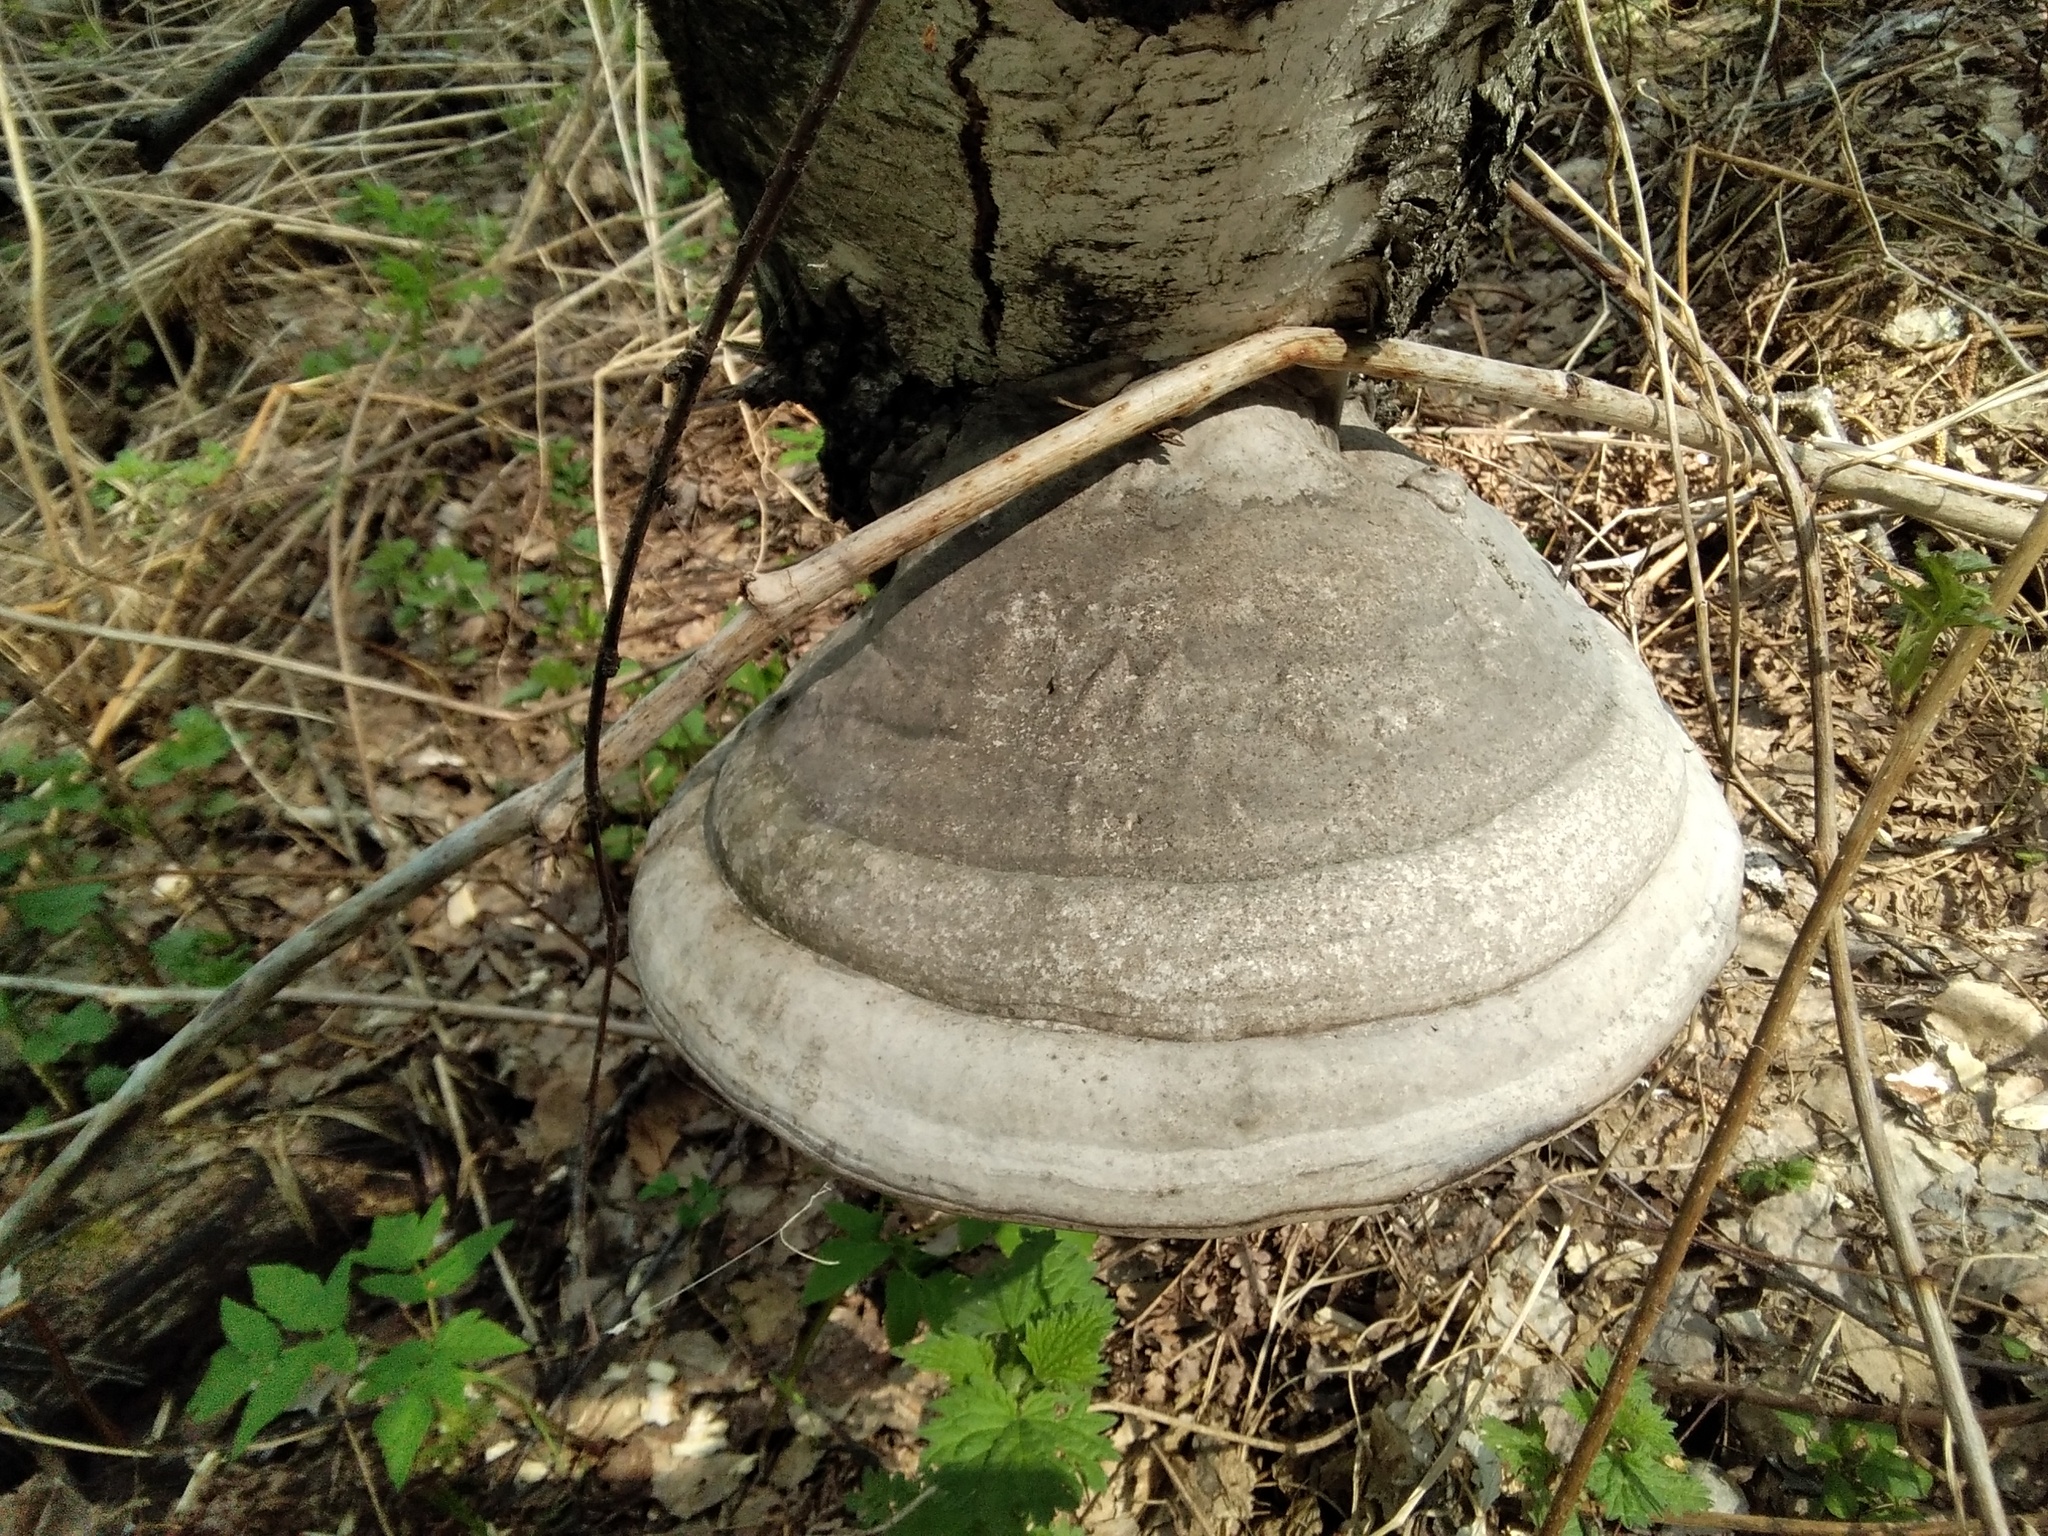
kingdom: Fungi
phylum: Basidiomycota
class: Agaricomycetes
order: Polyporales
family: Polyporaceae
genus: Fomes
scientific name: Fomes fomentarius
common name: Hoof fungus
